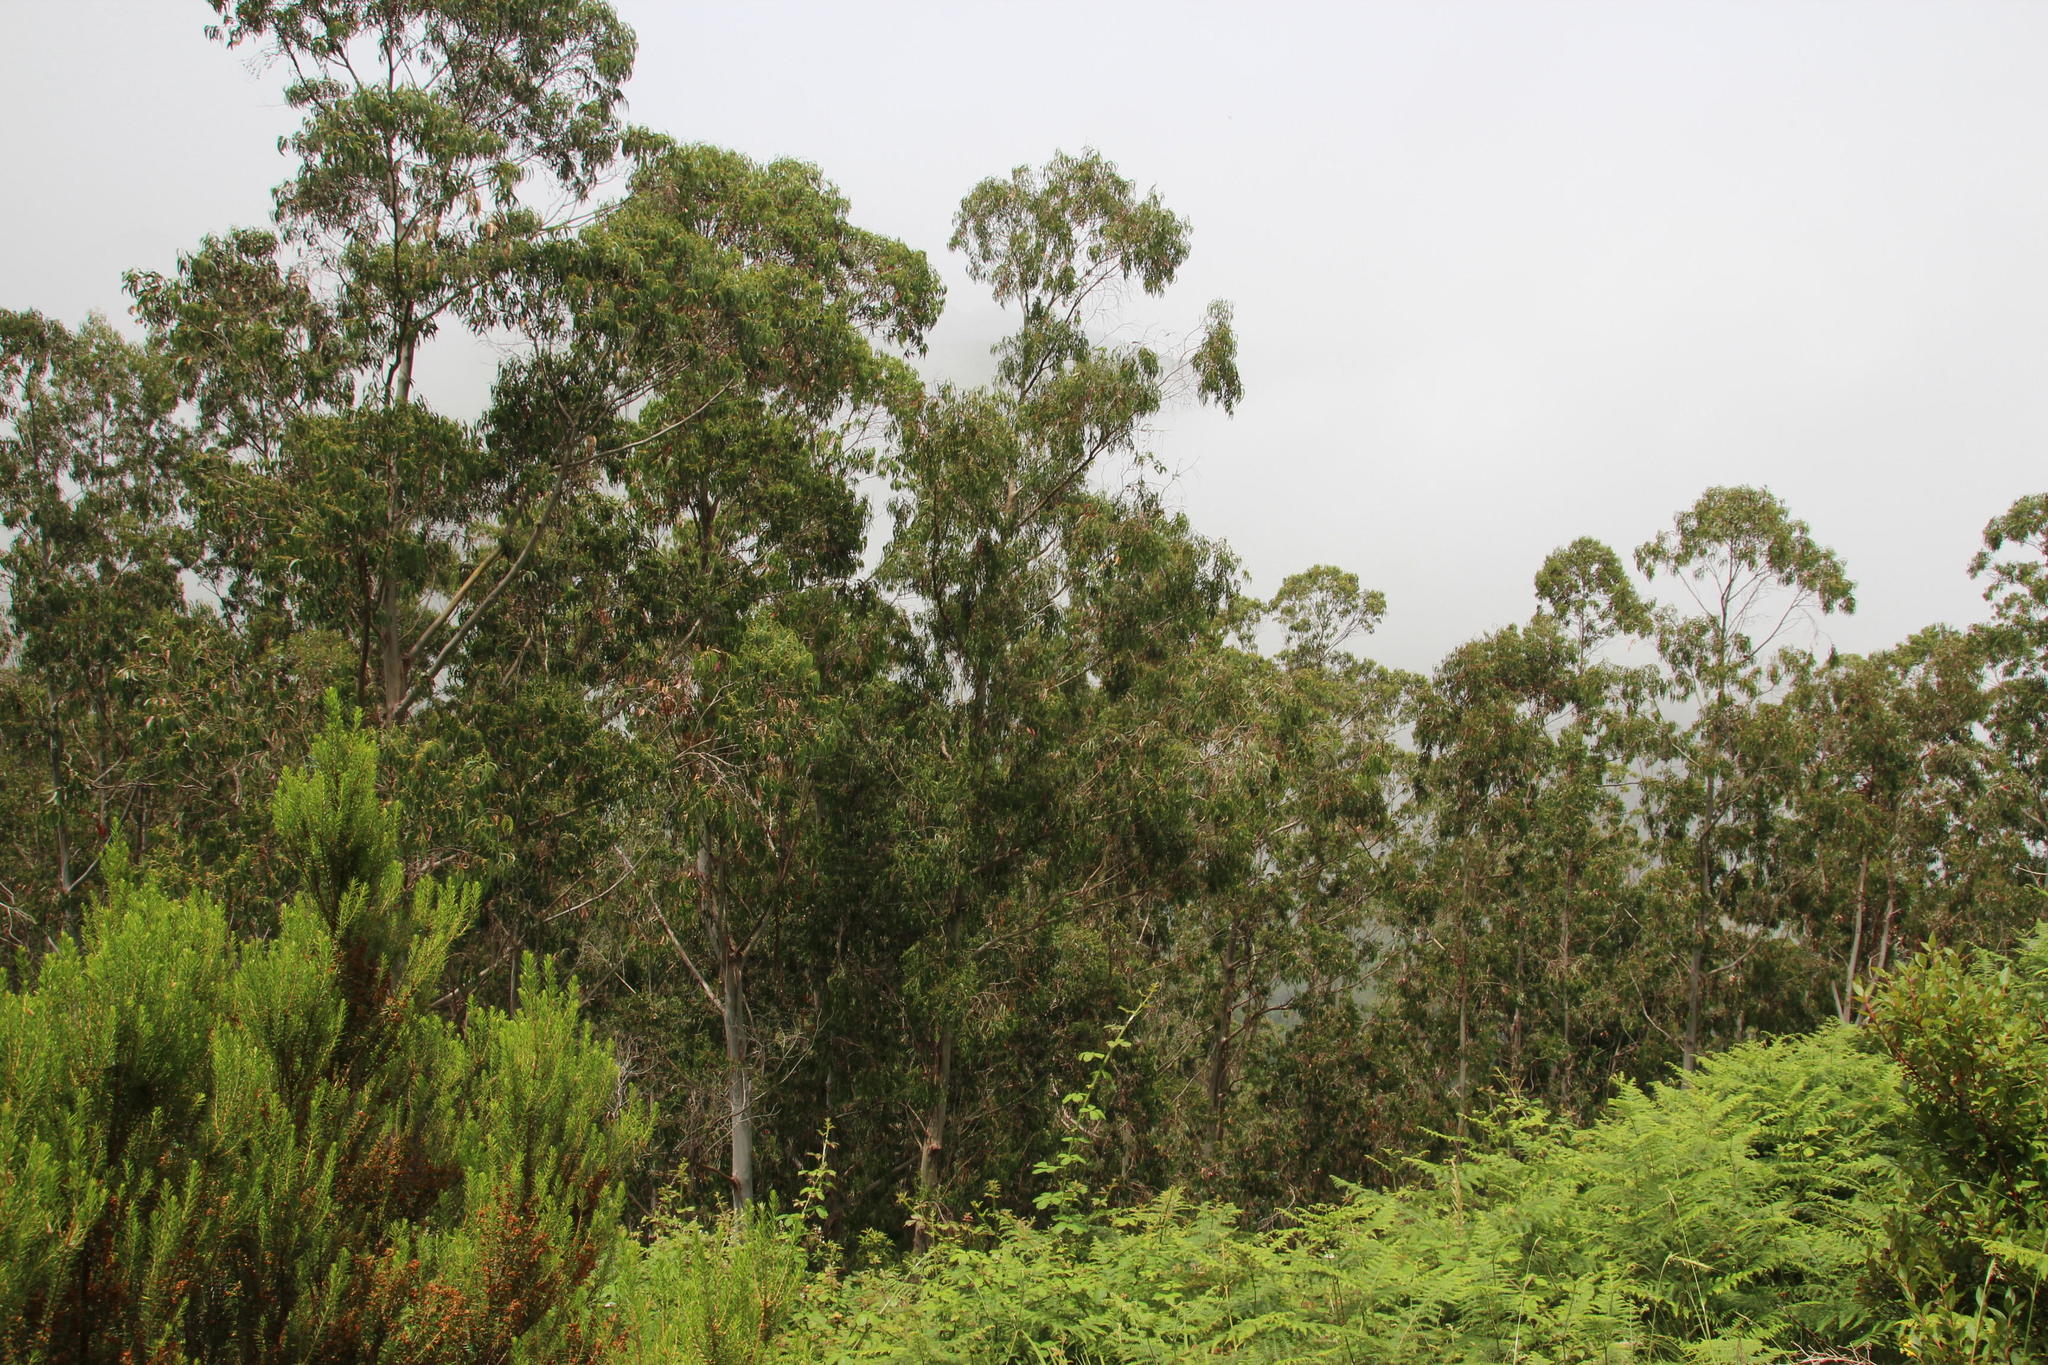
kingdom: Plantae
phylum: Tracheophyta
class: Magnoliopsida
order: Myrtales
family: Myrtaceae
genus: Eucalyptus
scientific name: Eucalyptus globulus
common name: Southern blue-gum
